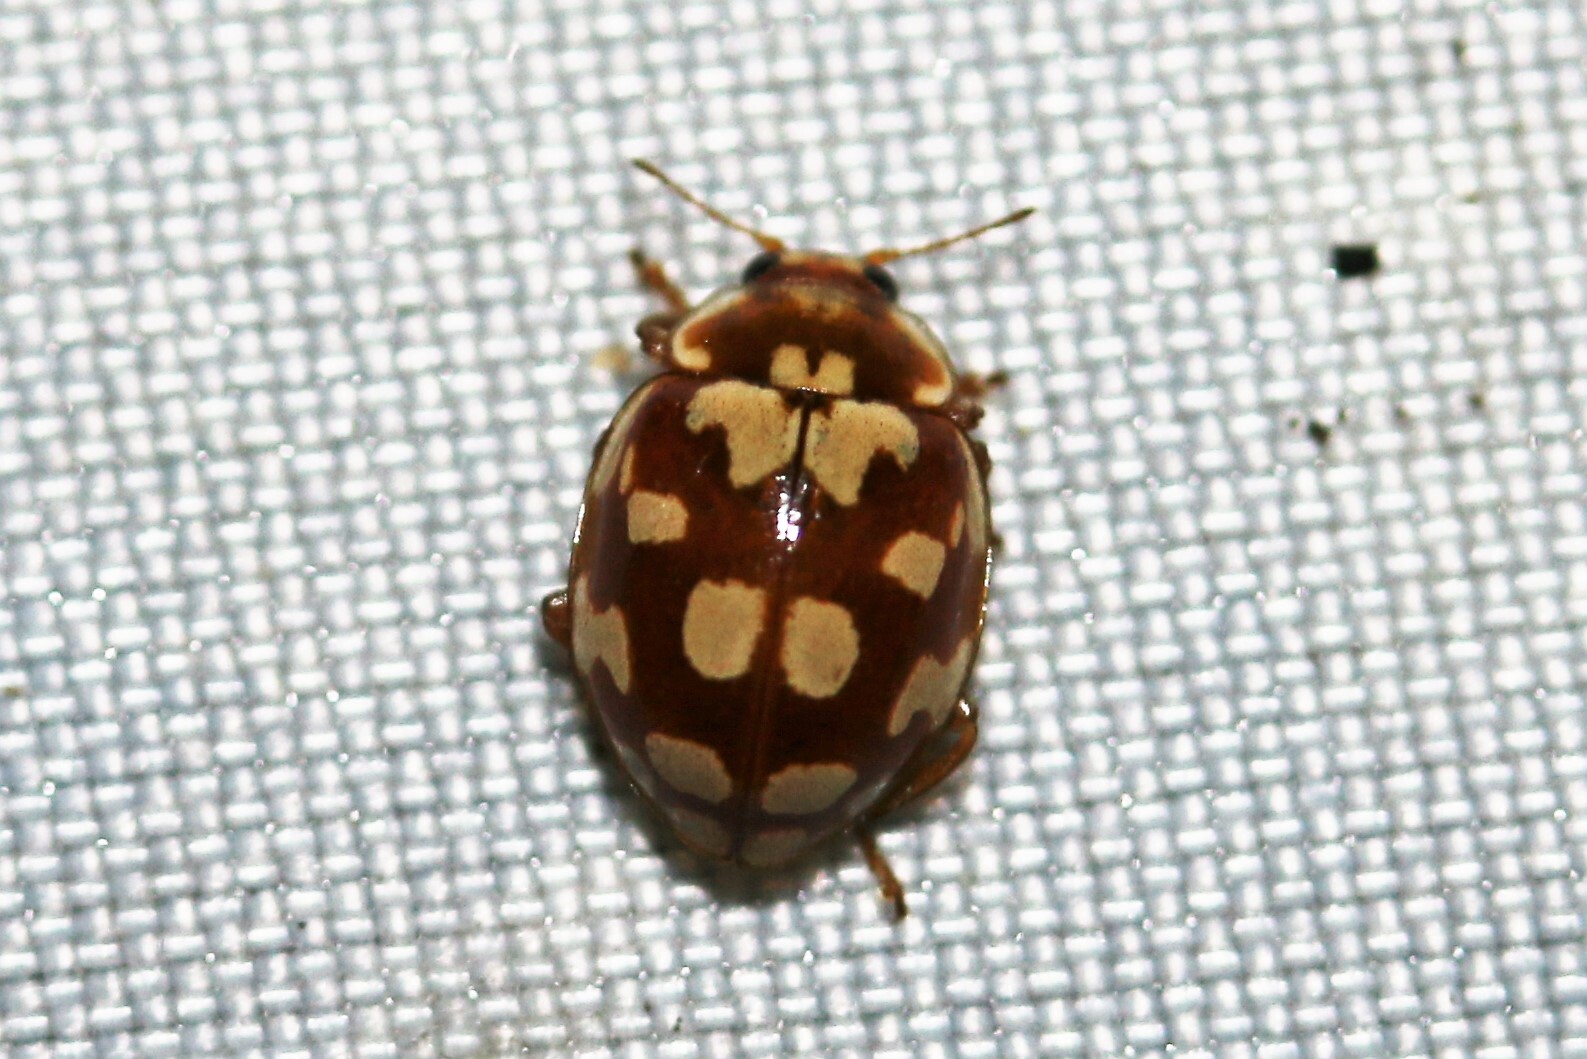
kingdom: Animalia
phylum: Arthropoda
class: Insecta
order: Coleoptera
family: Coccinellidae
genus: Myrrha
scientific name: Myrrha octodecimguttata
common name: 18-spot ladybird
